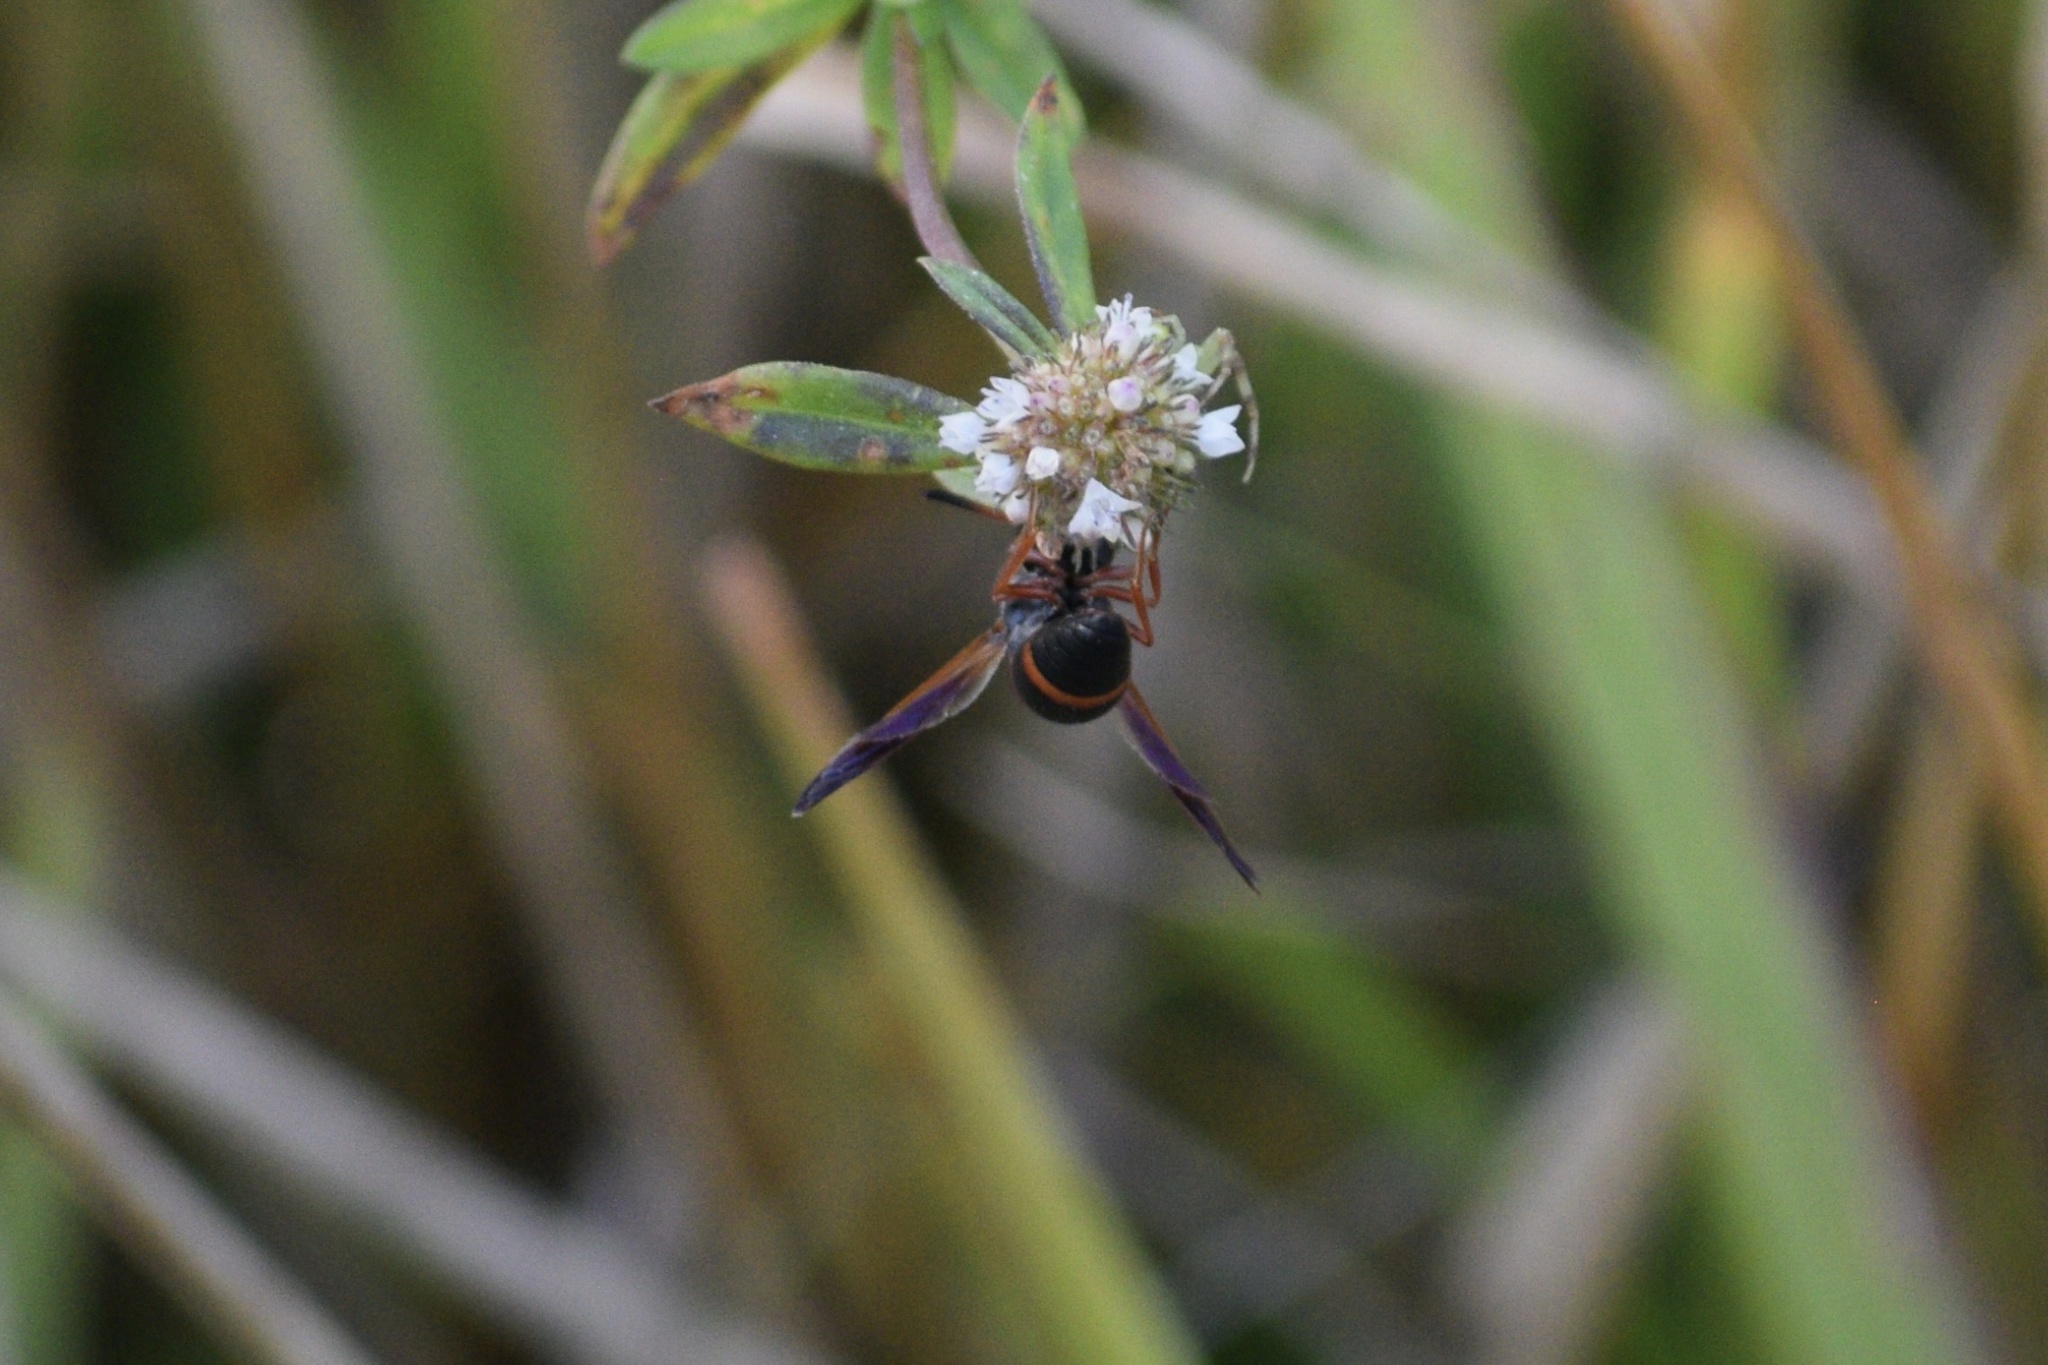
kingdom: Animalia
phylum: Arthropoda
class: Insecta
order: Hymenoptera
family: Eumenidae
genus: Pachodynerus
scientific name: Pachodynerus erynnis
